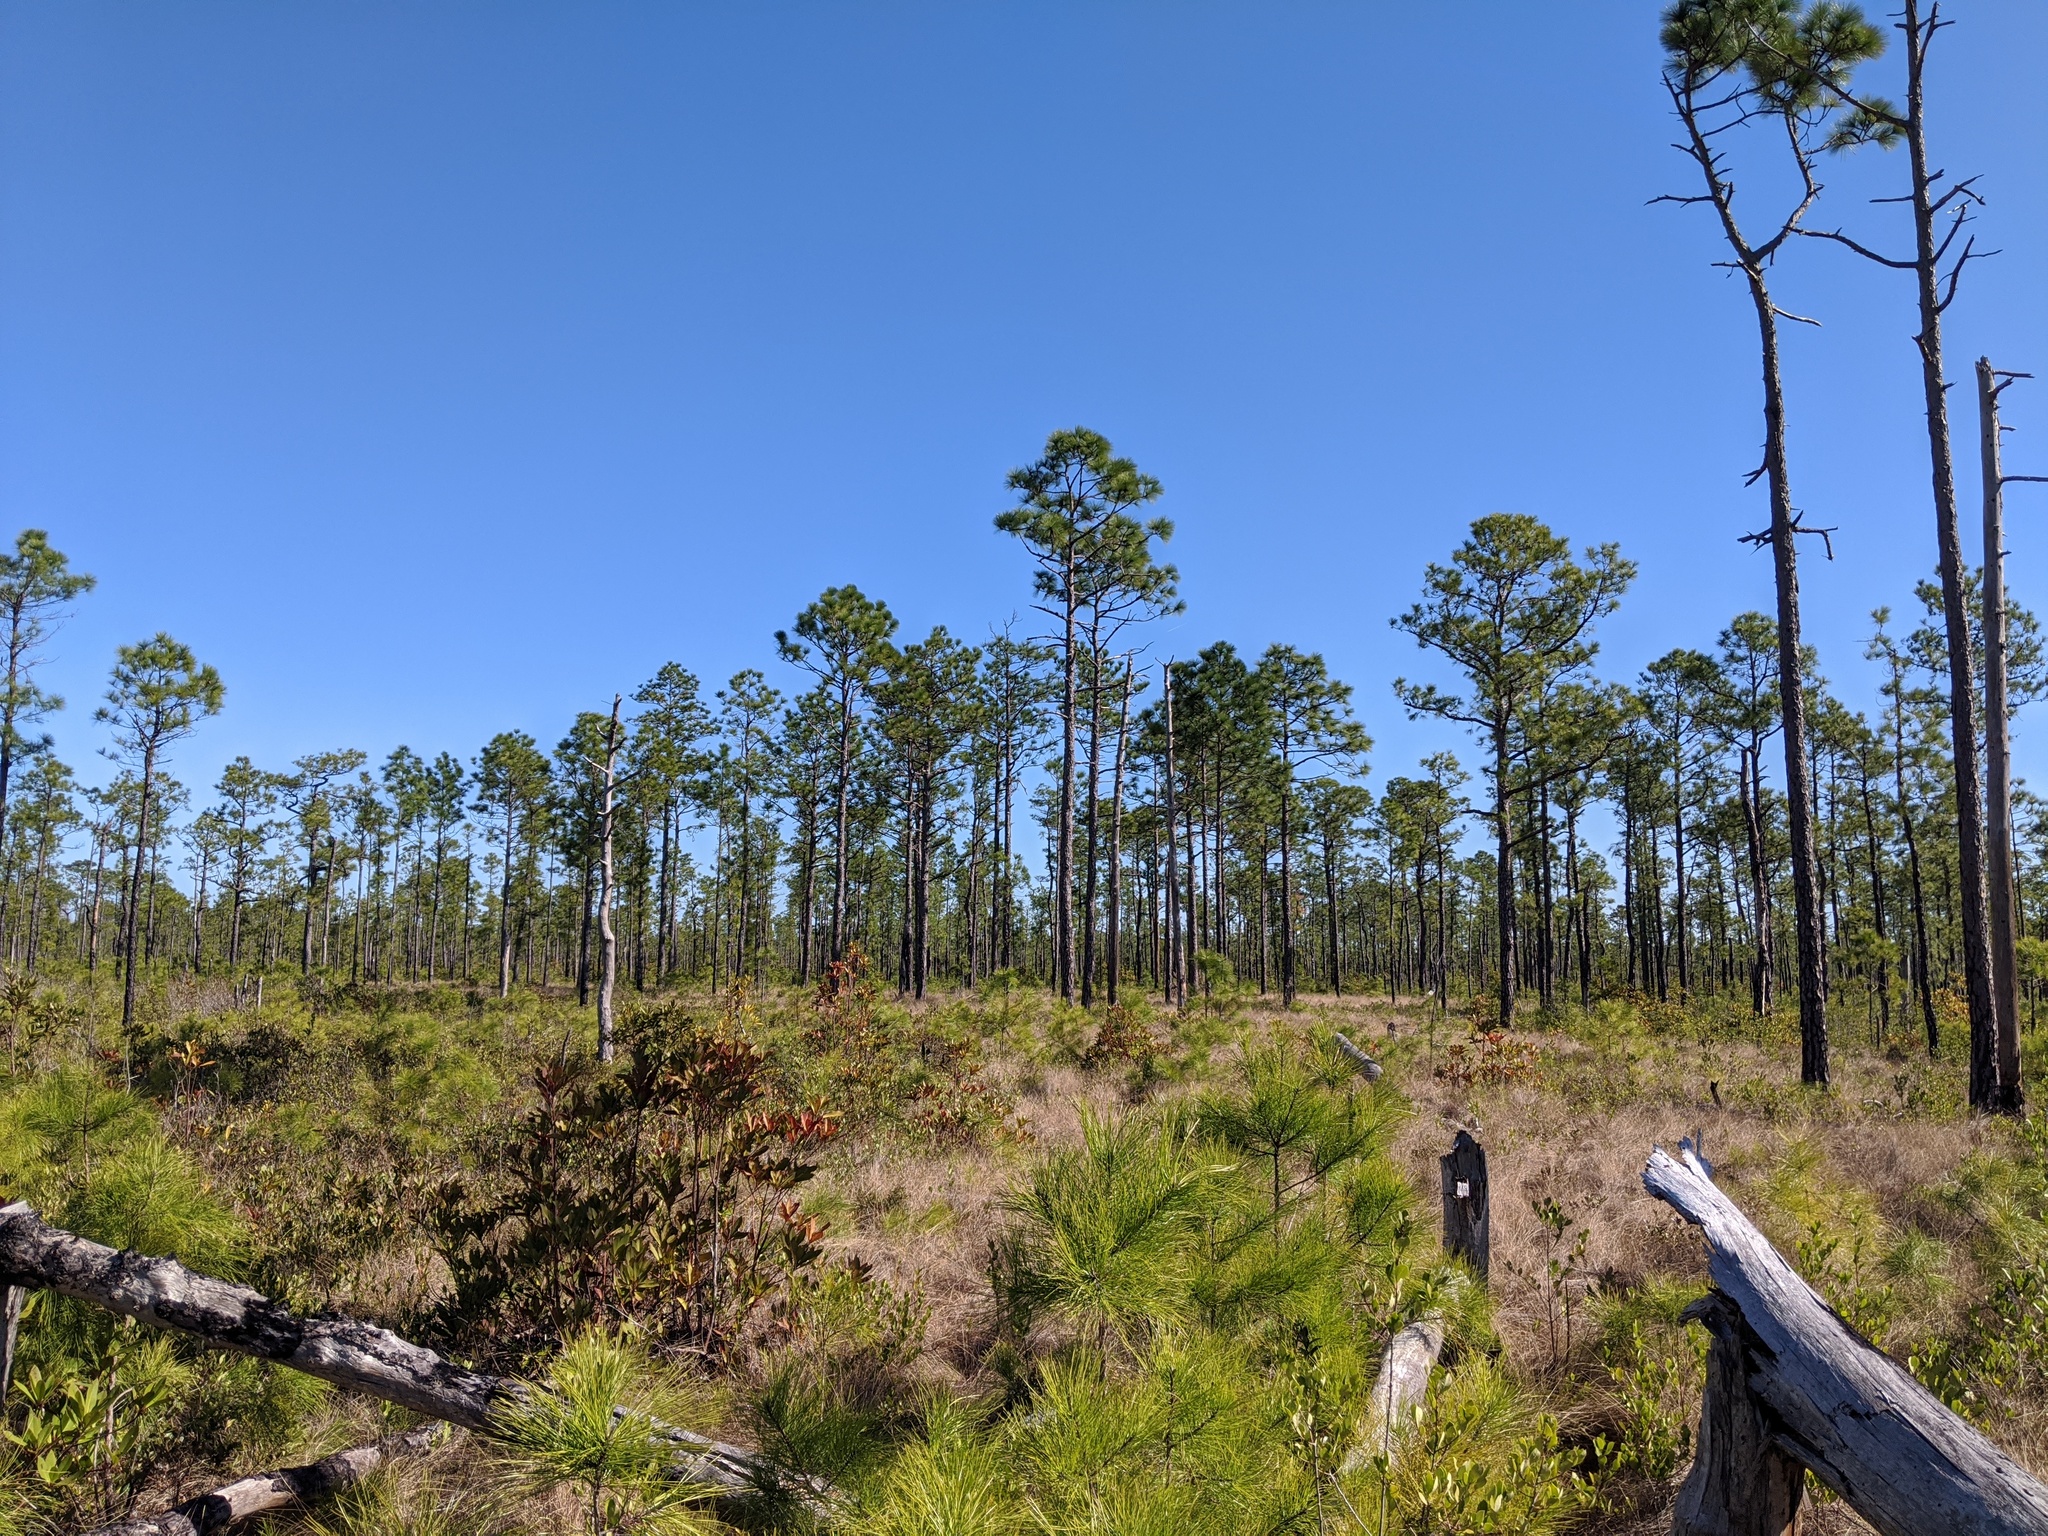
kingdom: Plantae
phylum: Tracheophyta
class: Pinopsida
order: Pinales
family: Pinaceae
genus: Pinus
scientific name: Pinus palustris
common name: Longleaf pine
